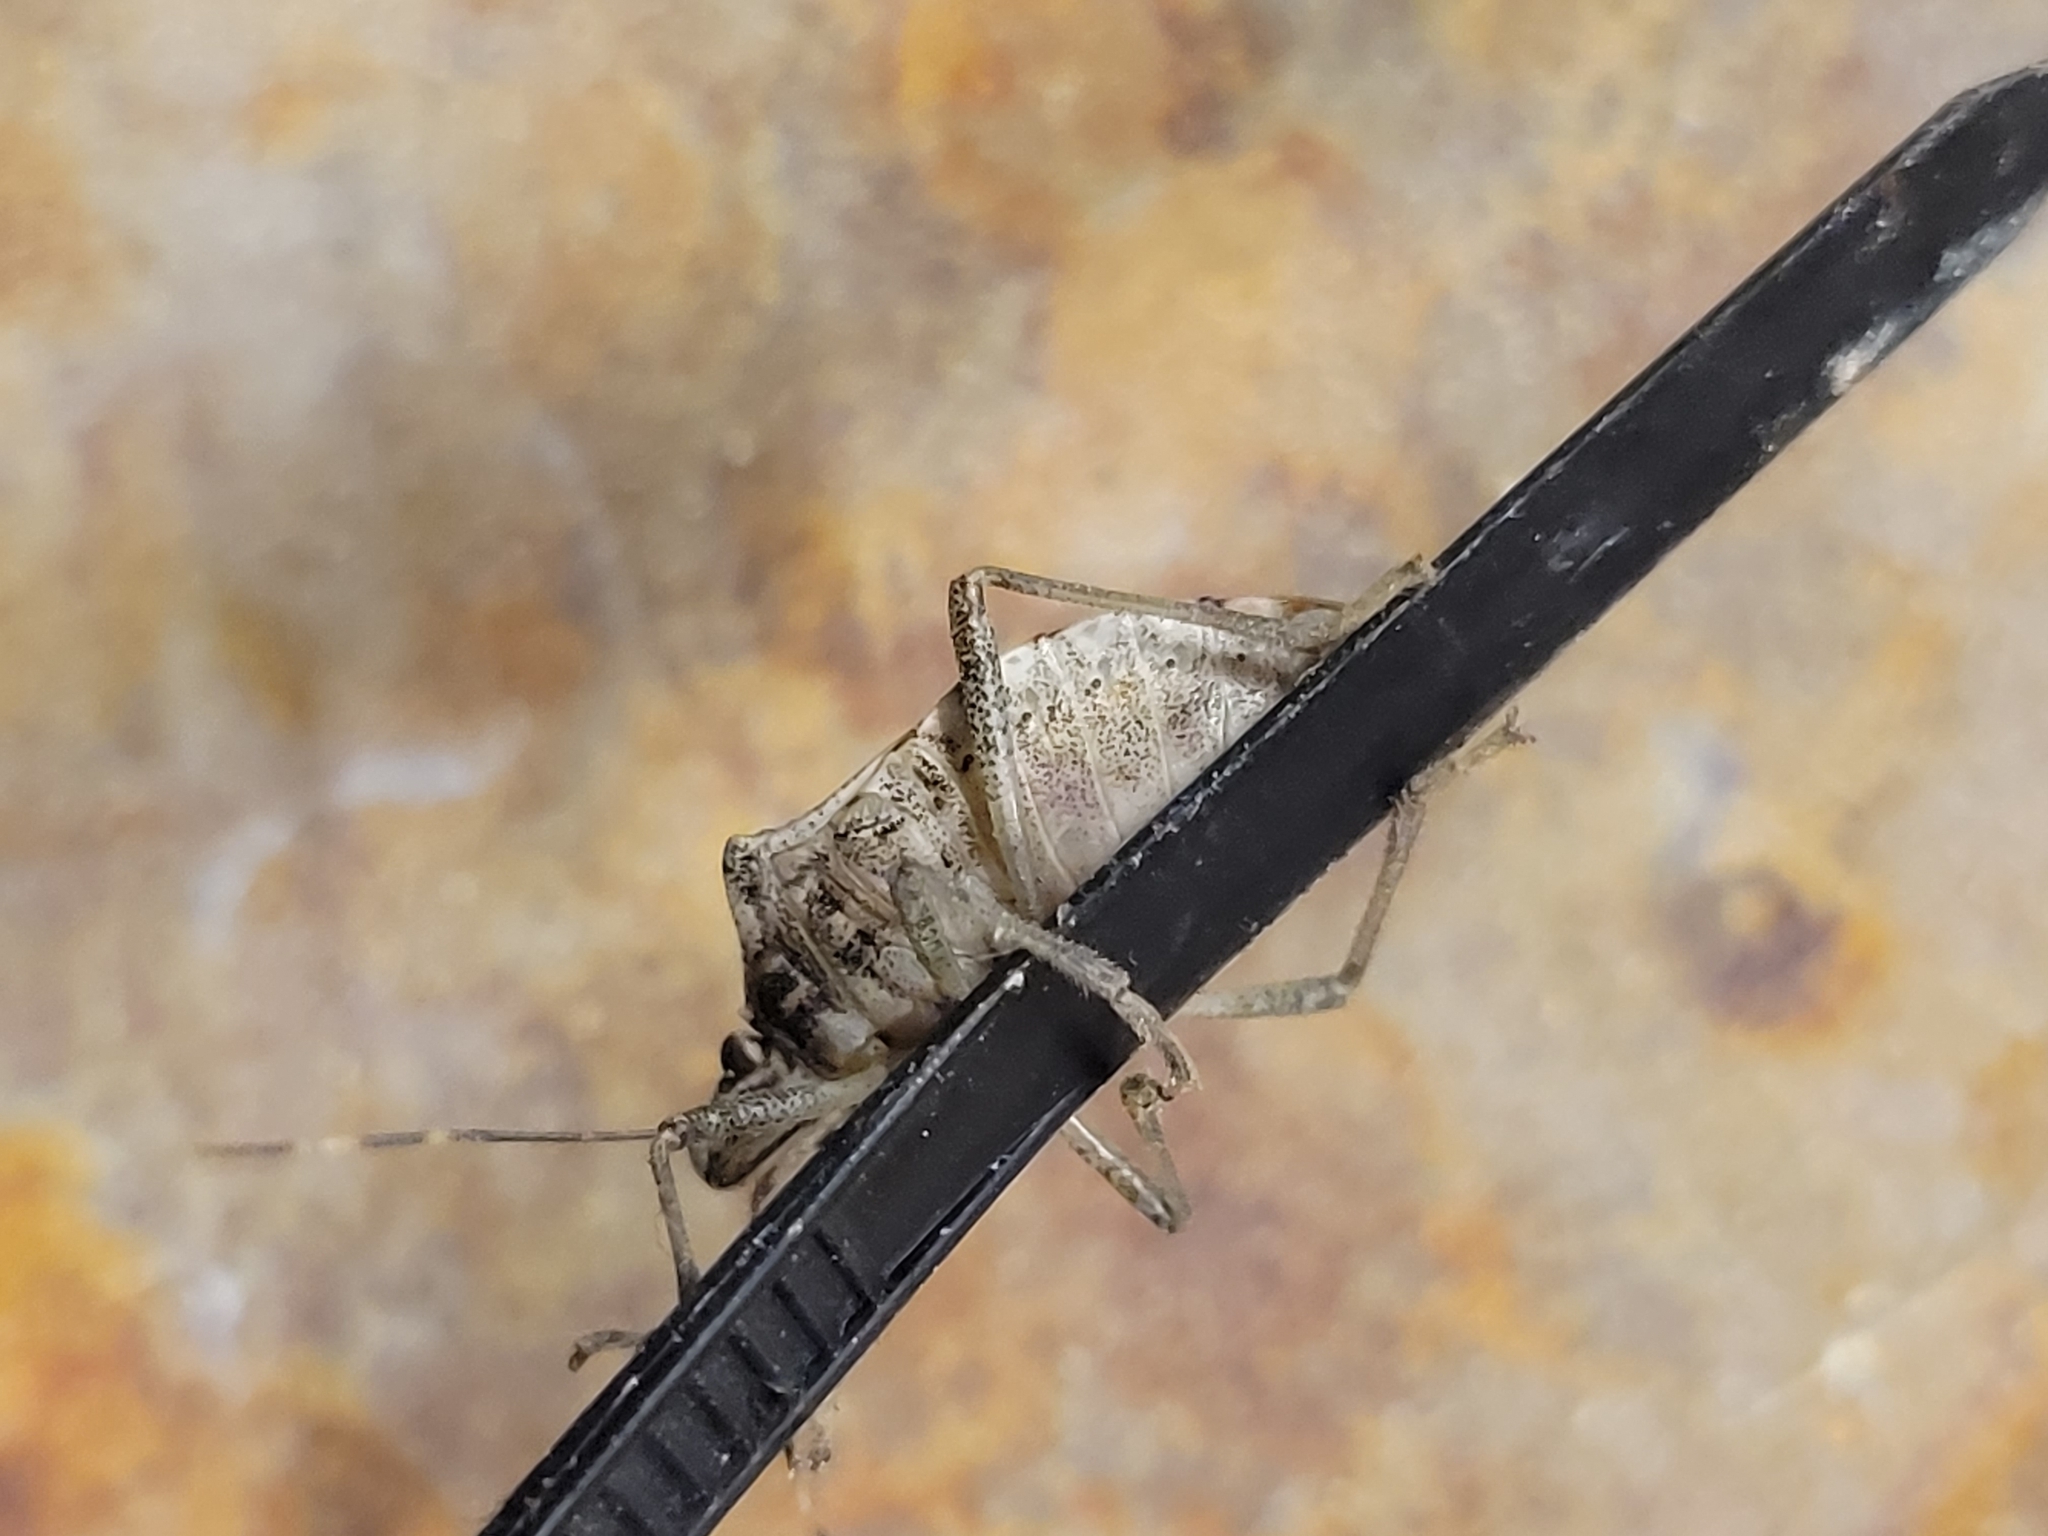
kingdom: Animalia
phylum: Arthropoda
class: Insecta
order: Hemiptera
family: Pentatomidae
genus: Halyomorpha
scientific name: Halyomorpha halys
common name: Brown marmorated stink bug
